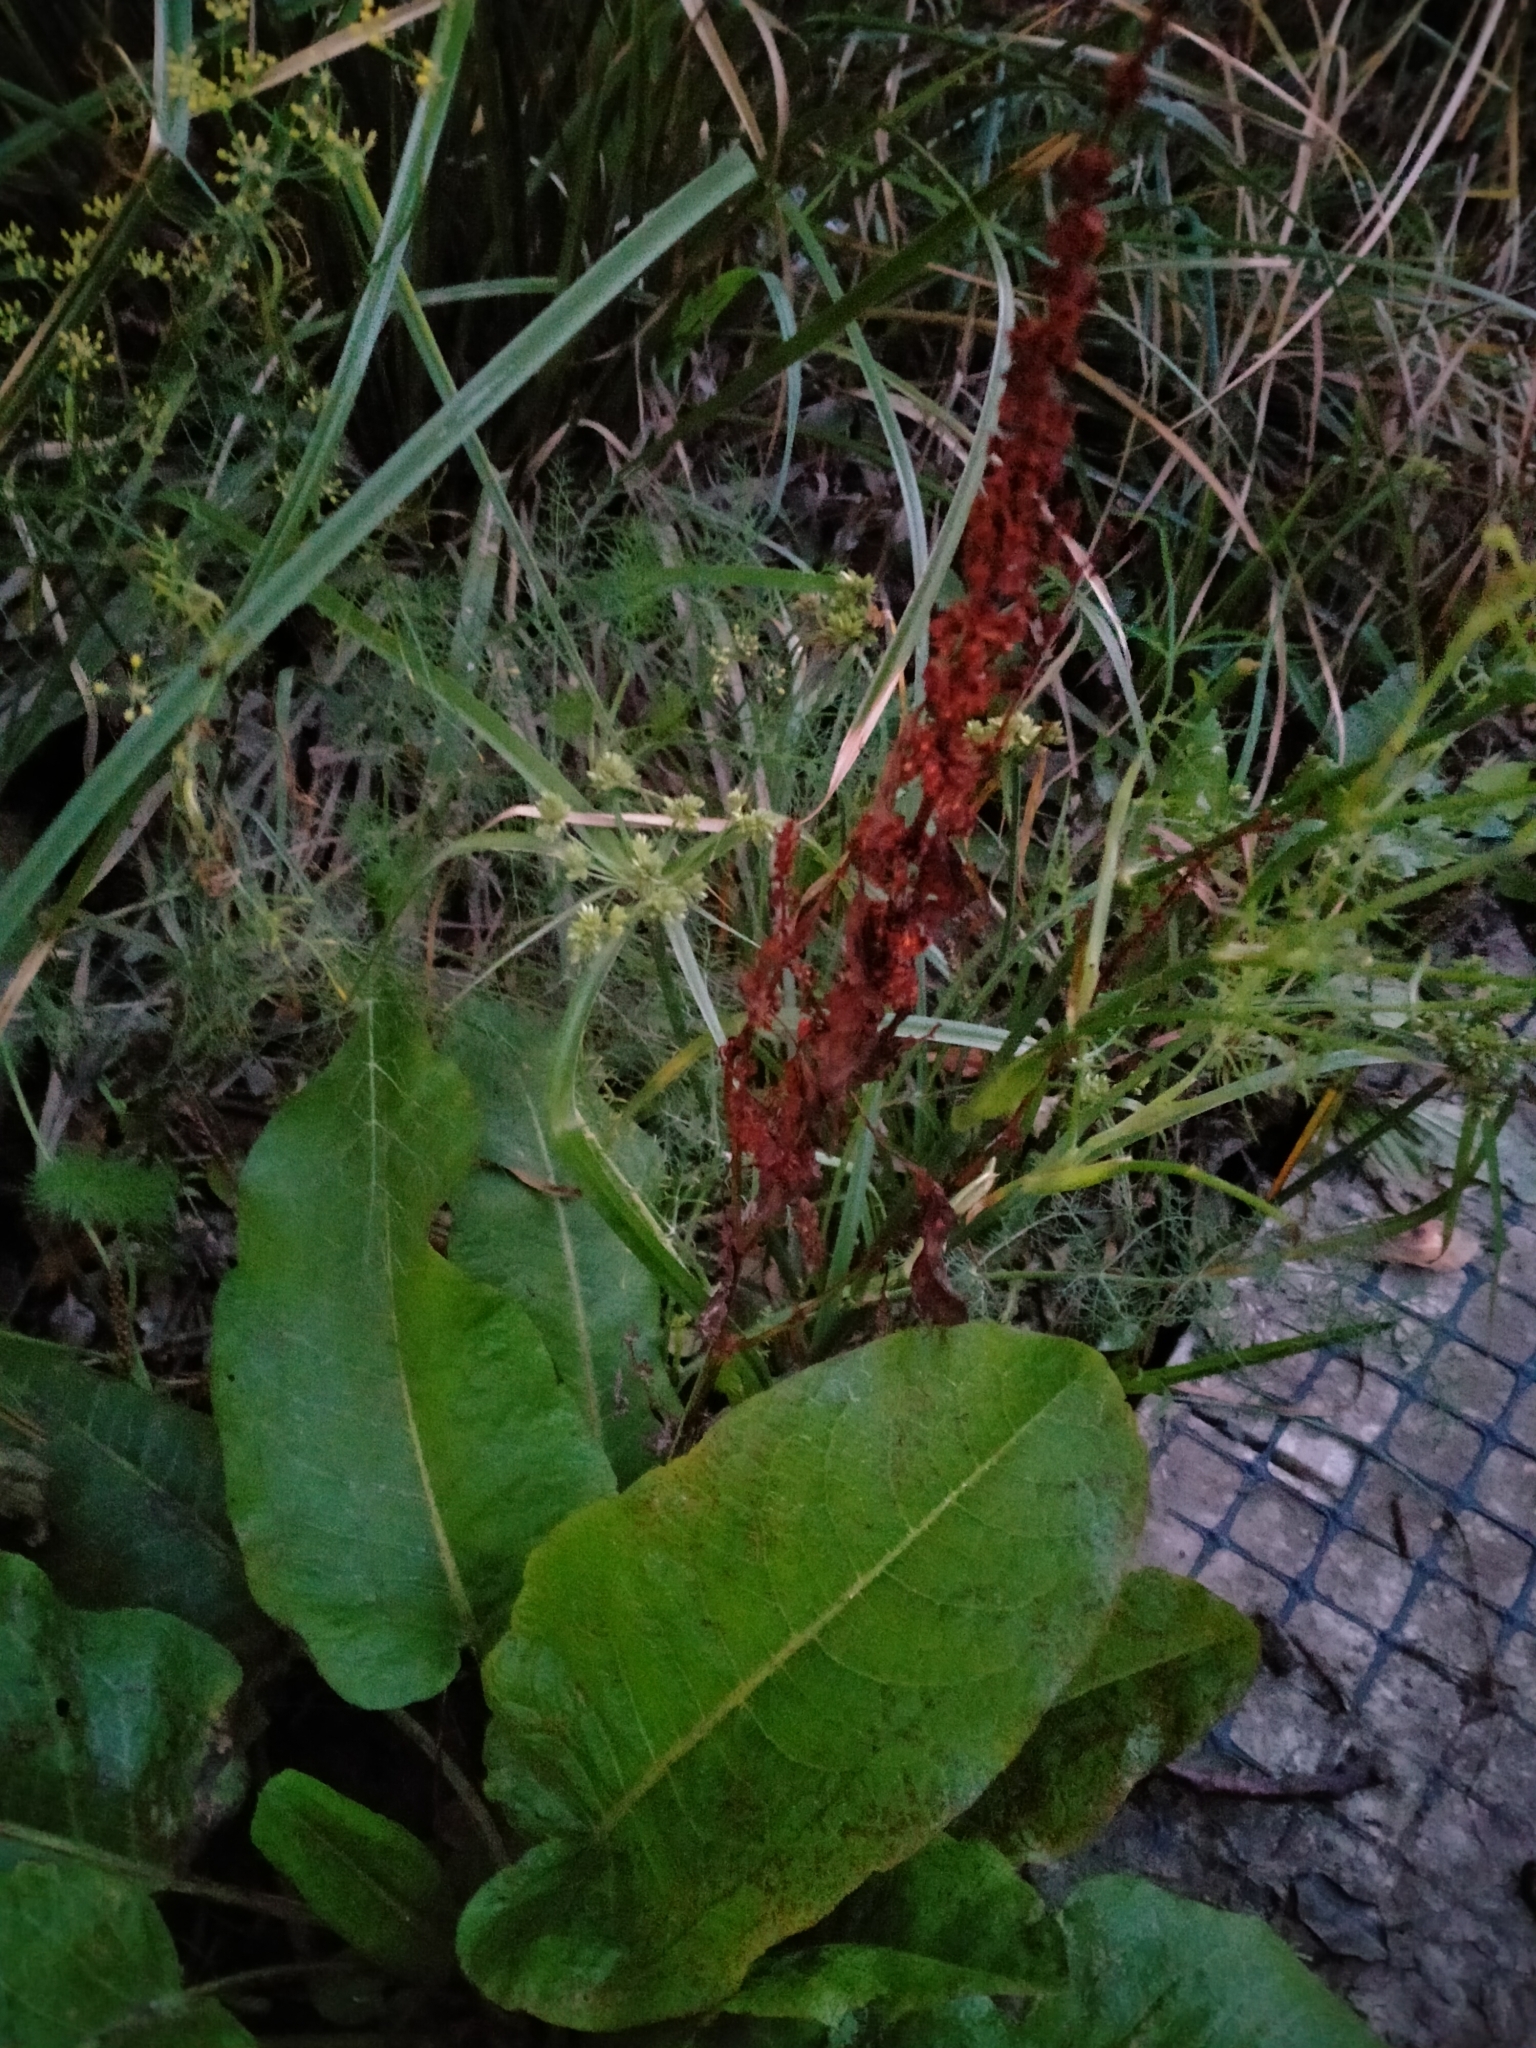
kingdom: Plantae
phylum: Tracheophyta
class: Magnoliopsida
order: Caryophyllales
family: Polygonaceae
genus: Rumex
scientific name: Rumex obtusifolius
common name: Bitter dock
